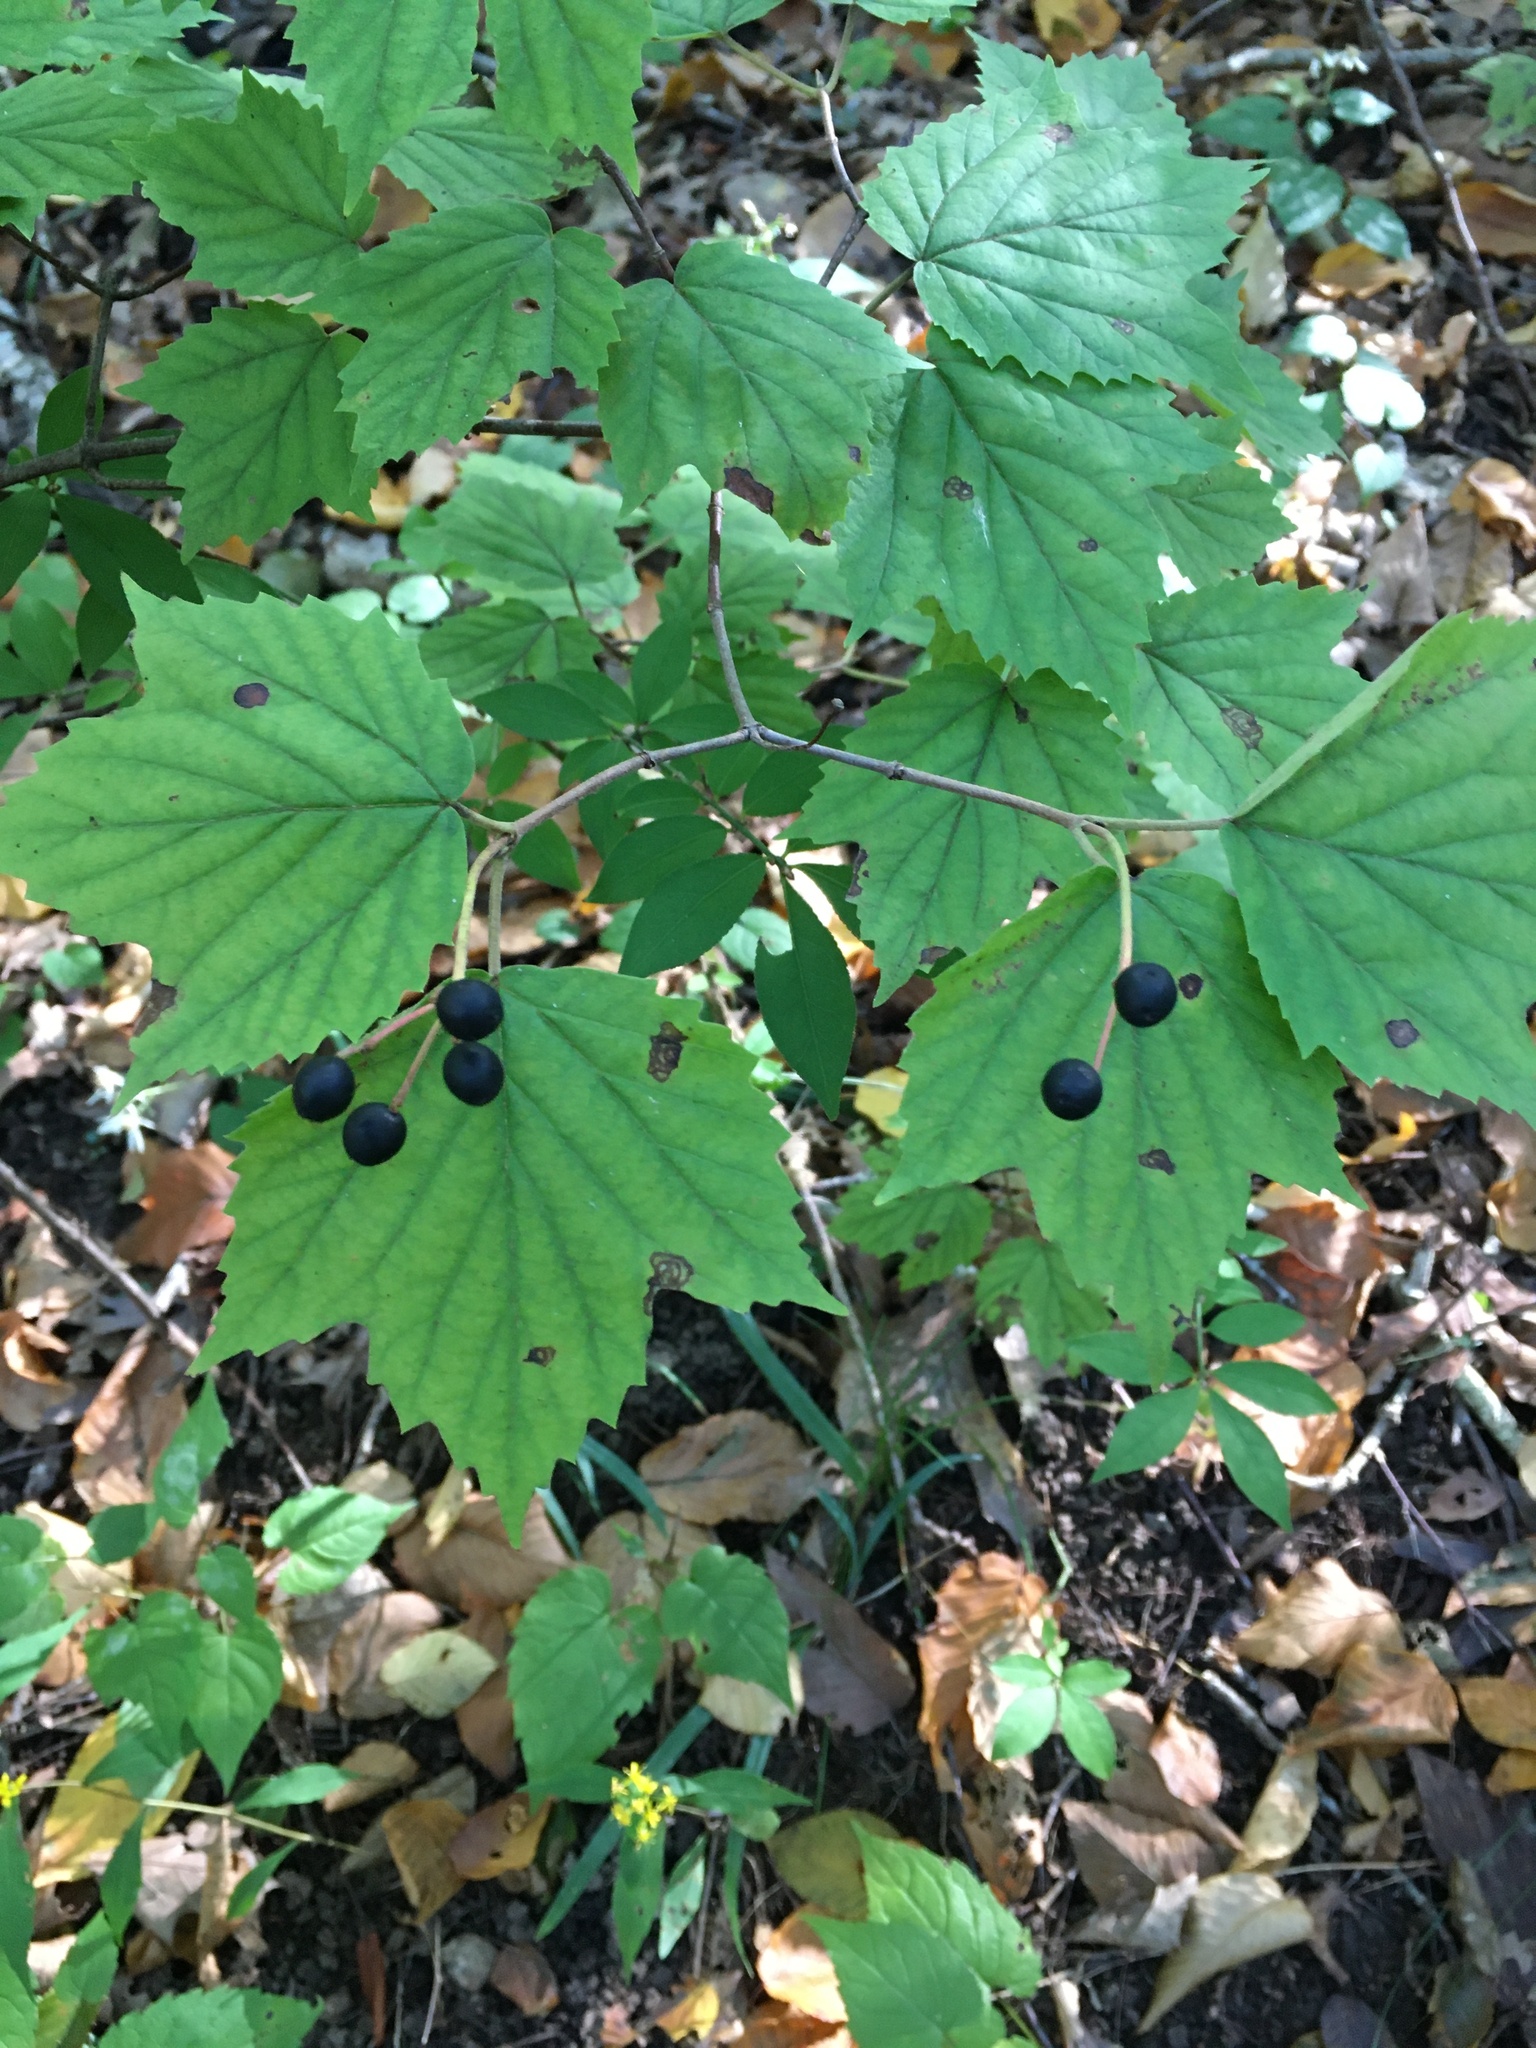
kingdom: Plantae
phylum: Tracheophyta
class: Magnoliopsida
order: Dipsacales
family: Viburnaceae
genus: Viburnum
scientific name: Viburnum acerifolium
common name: Dockmackie
